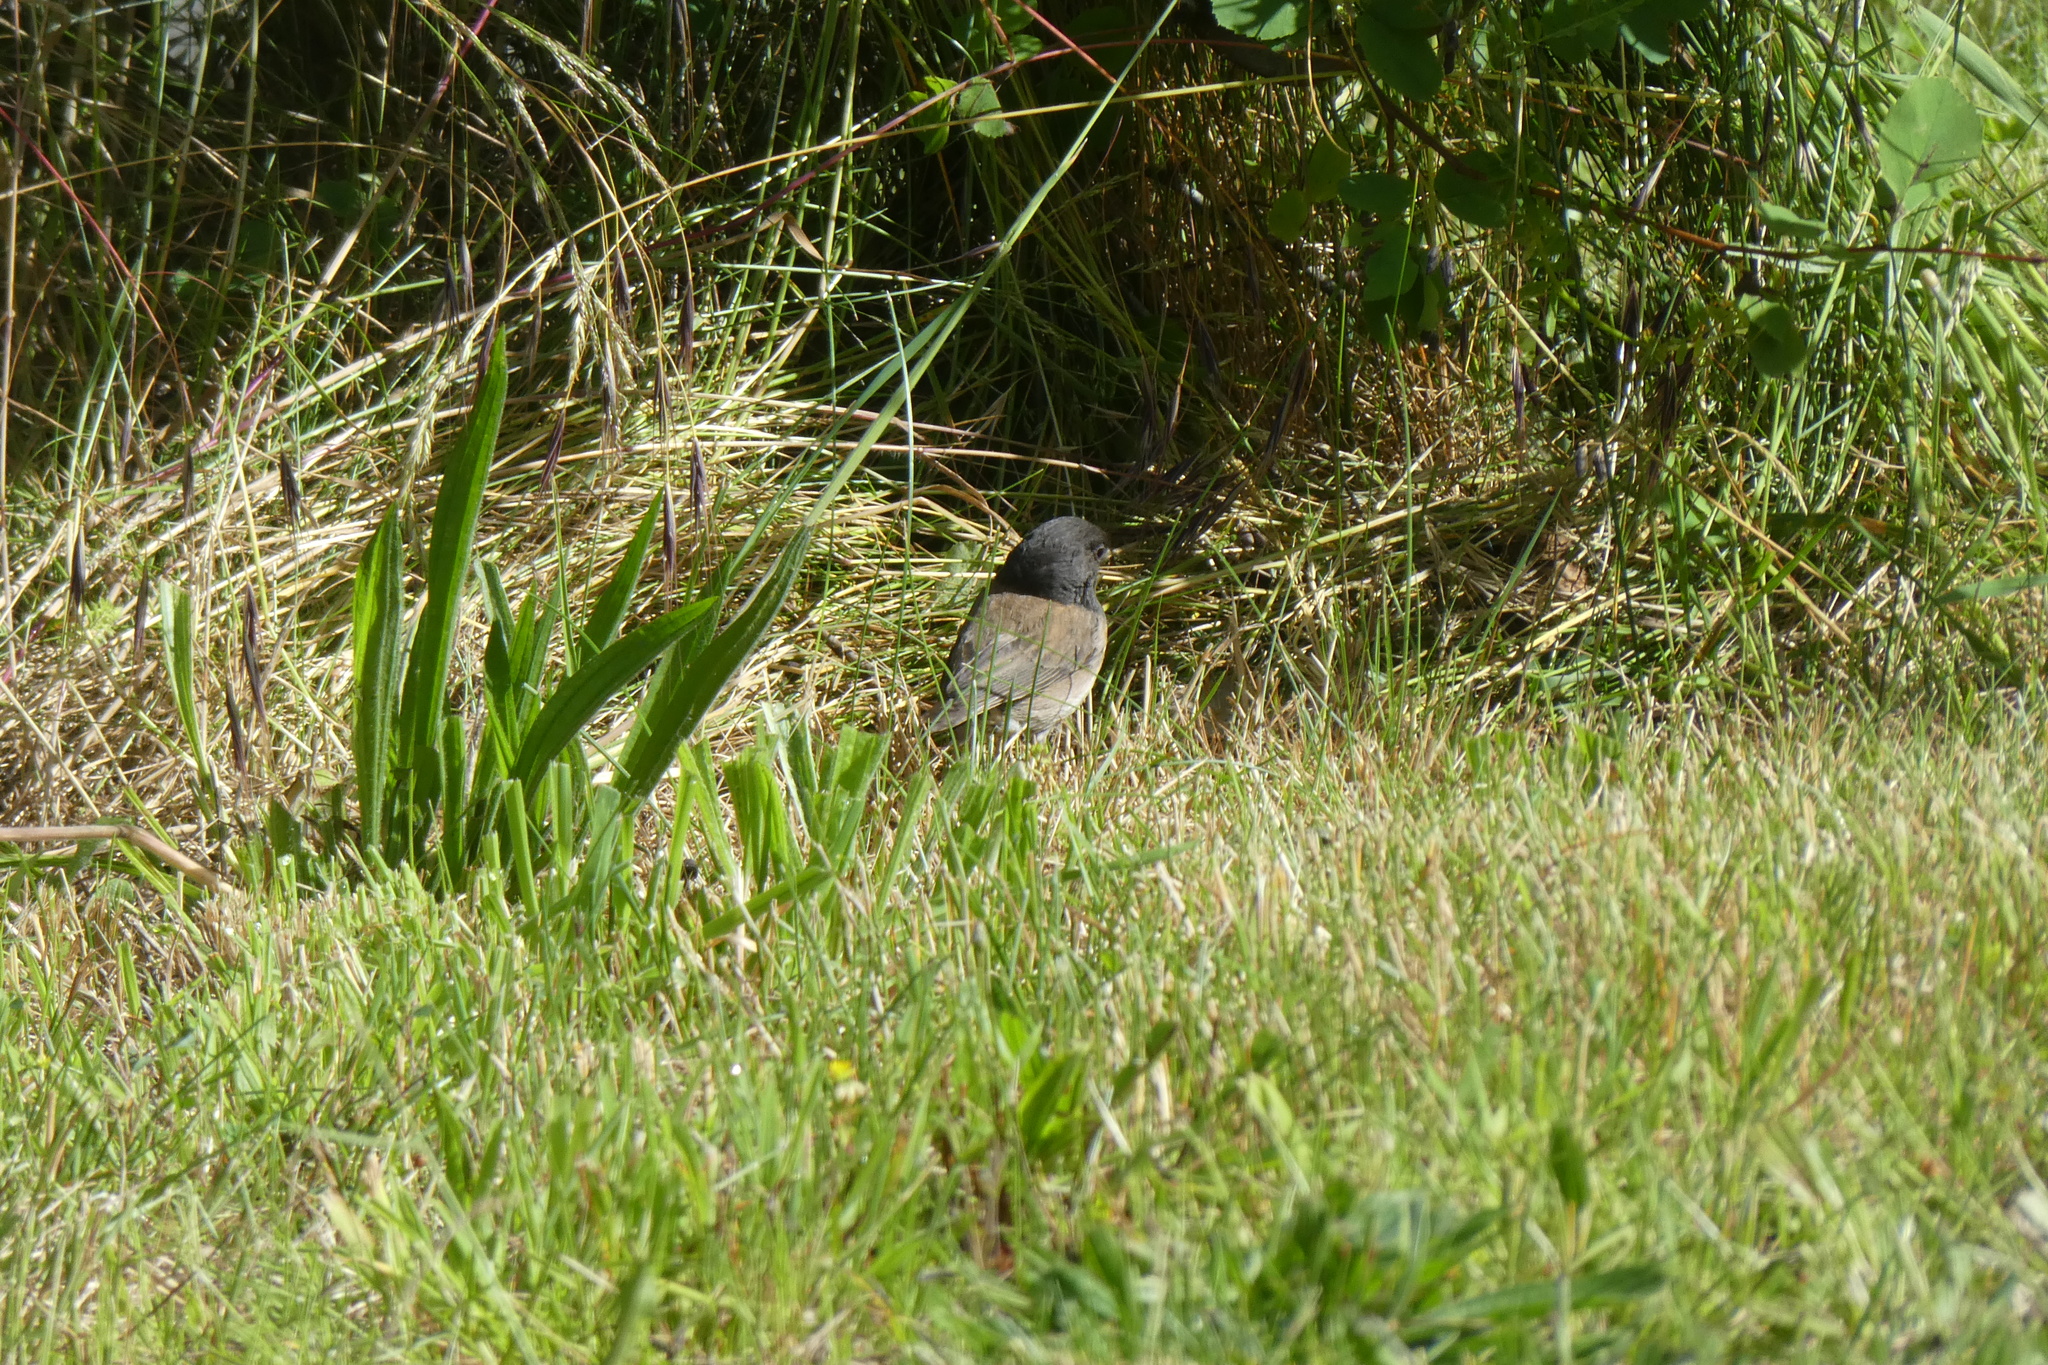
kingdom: Animalia
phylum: Chordata
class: Aves
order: Passeriformes
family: Passerellidae
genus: Junco
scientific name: Junco hyemalis
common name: Dark-eyed junco
